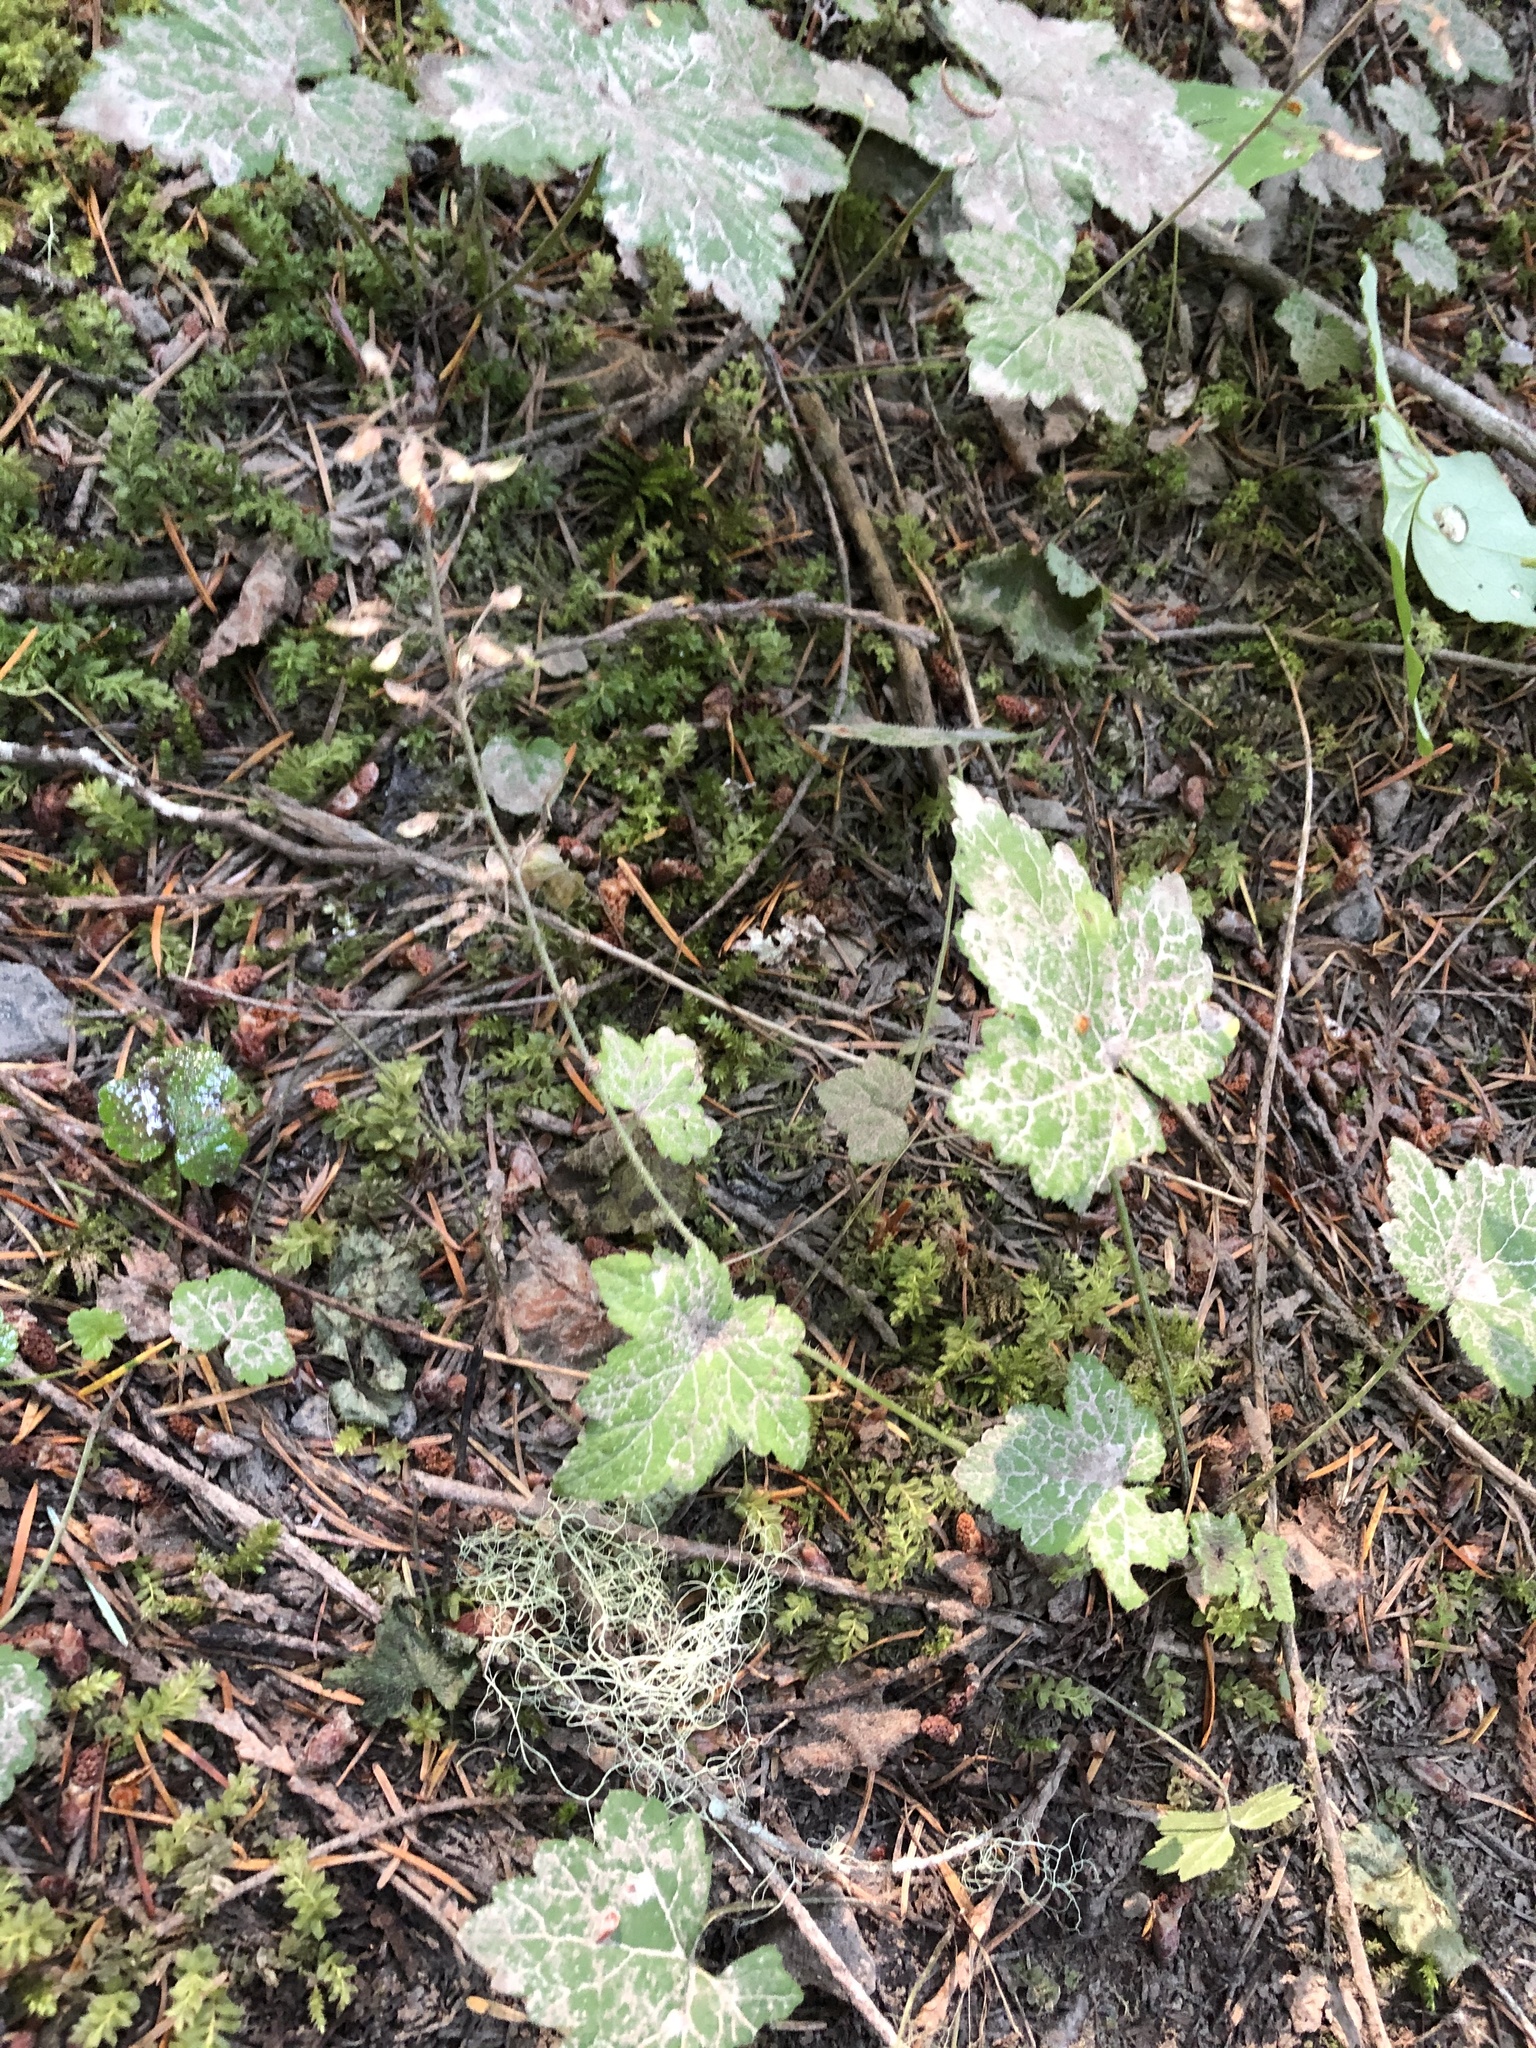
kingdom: Plantae
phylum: Tracheophyta
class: Magnoliopsida
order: Saxifragales
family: Saxifragaceae
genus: Tiarella
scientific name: Tiarella trifoliata
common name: Sugar-scoop
